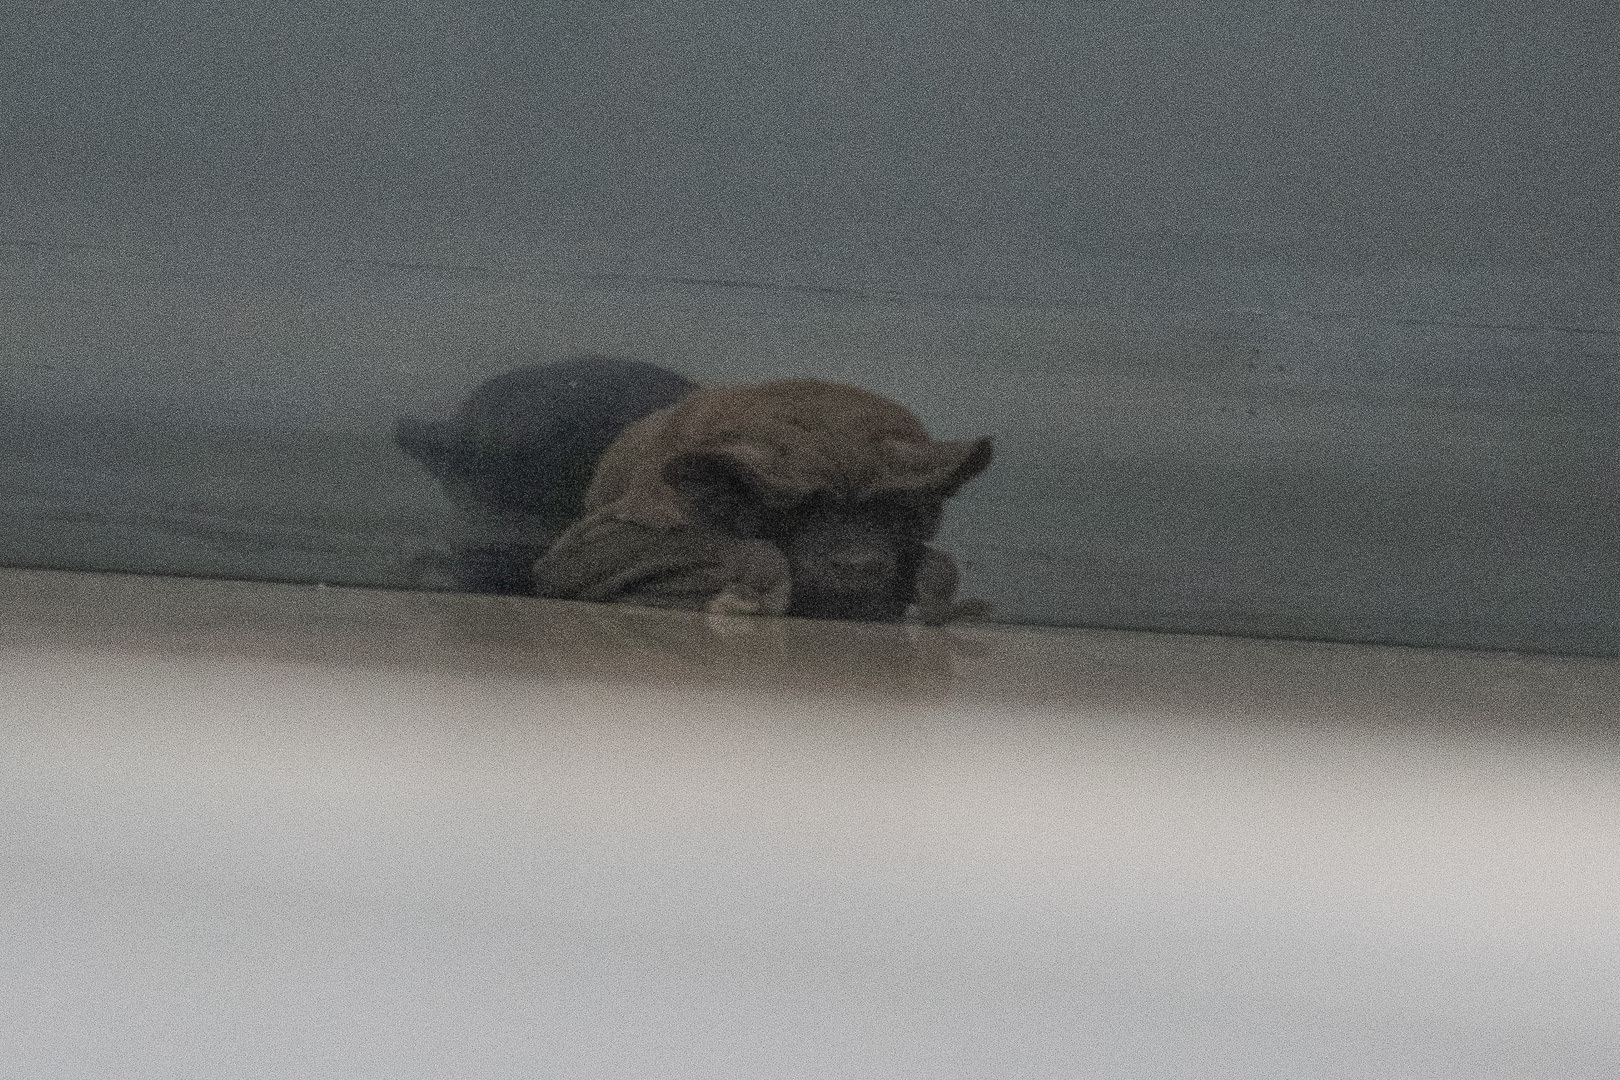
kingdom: Animalia
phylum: Chordata
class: Mammalia
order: Chiroptera
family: Molossidae
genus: Tadarida
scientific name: Tadarida brasiliensis
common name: Mexican free-tailed bat
